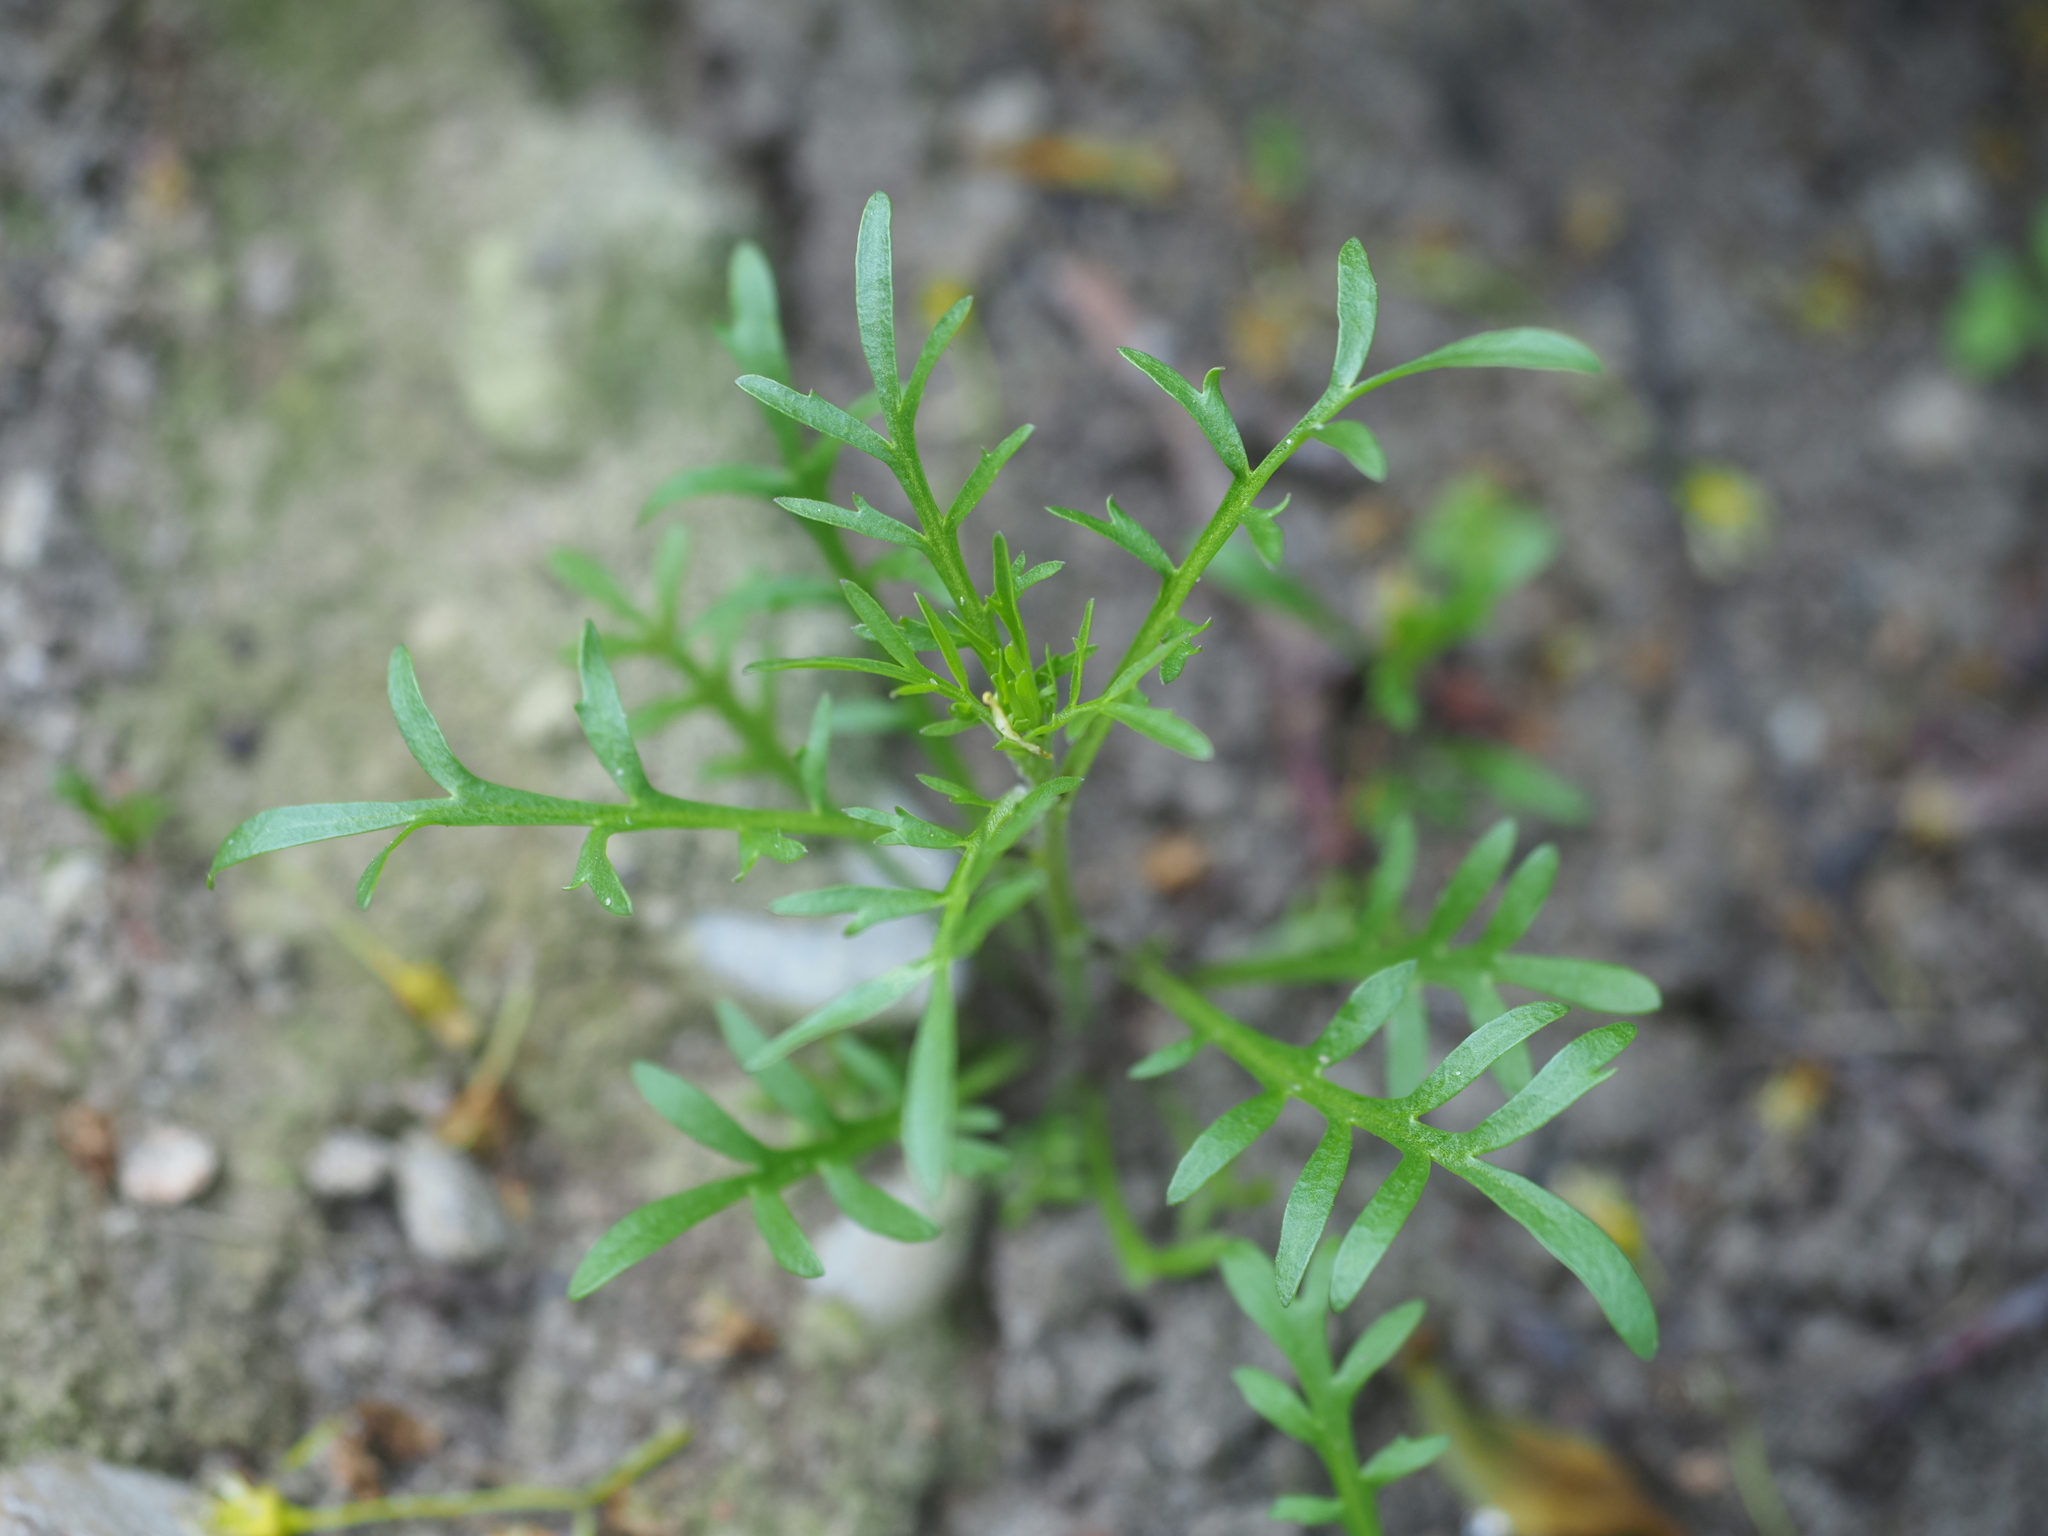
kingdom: Plantae
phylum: Tracheophyta
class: Magnoliopsida
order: Brassicales
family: Brassicaceae
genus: Lepidium
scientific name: Lepidium ruderale
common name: Narrow-leaved pepperwort
